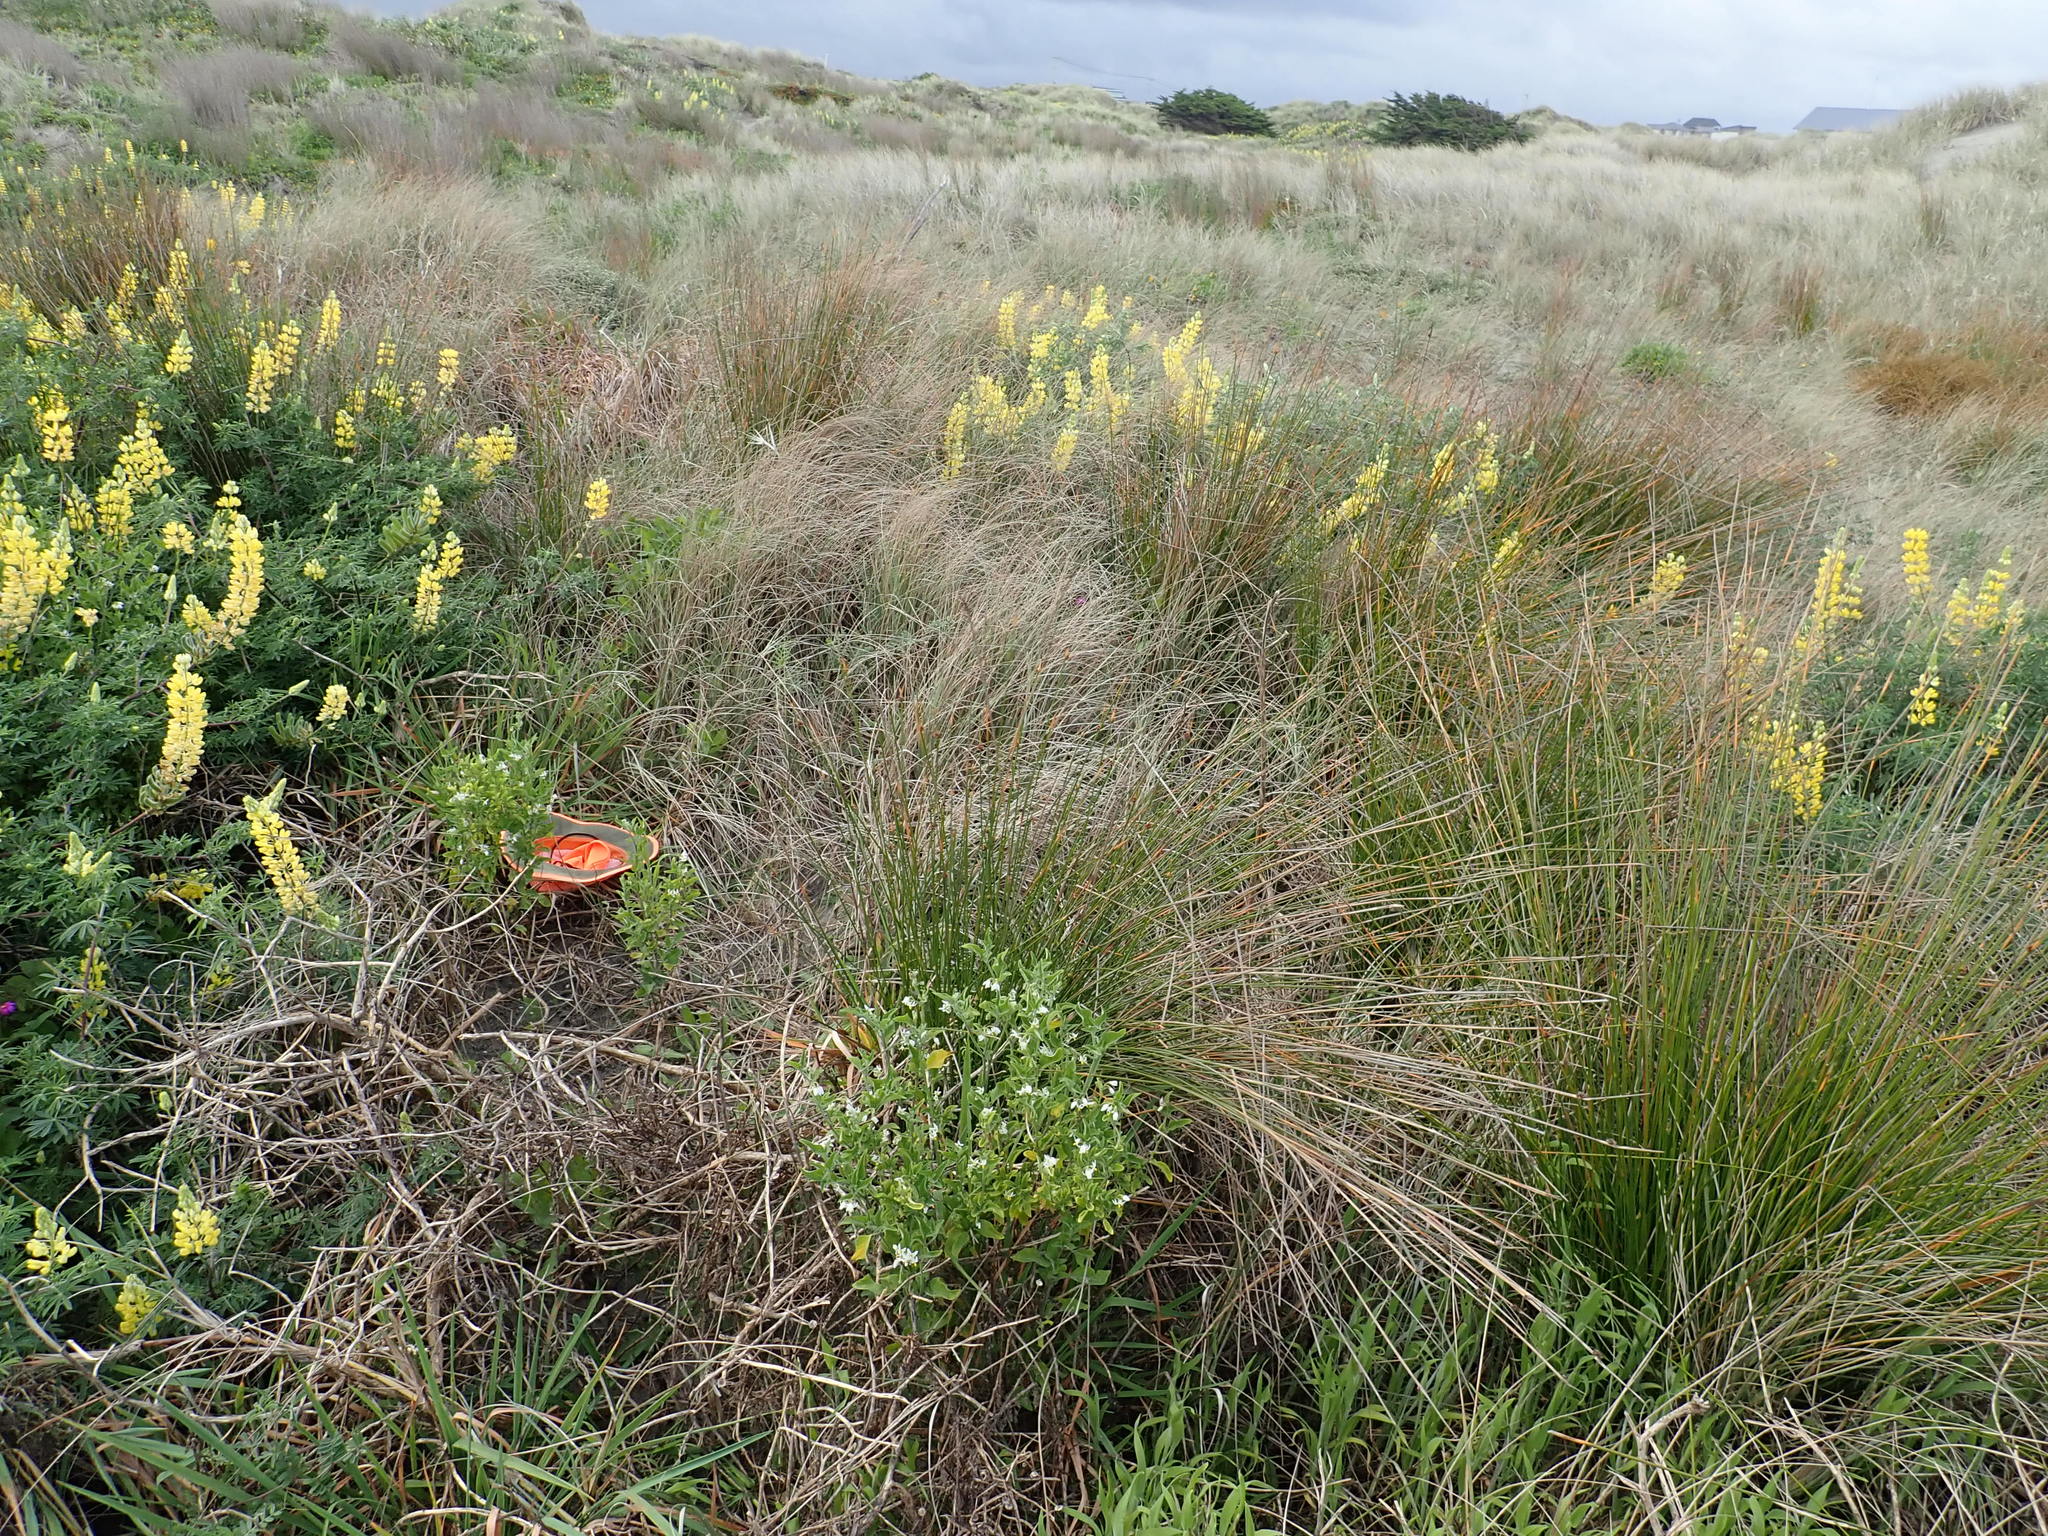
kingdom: Plantae
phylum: Tracheophyta
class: Magnoliopsida
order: Solanales
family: Solanaceae
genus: Solanum
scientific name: Solanum chenopodioides
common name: Tall nightshade
